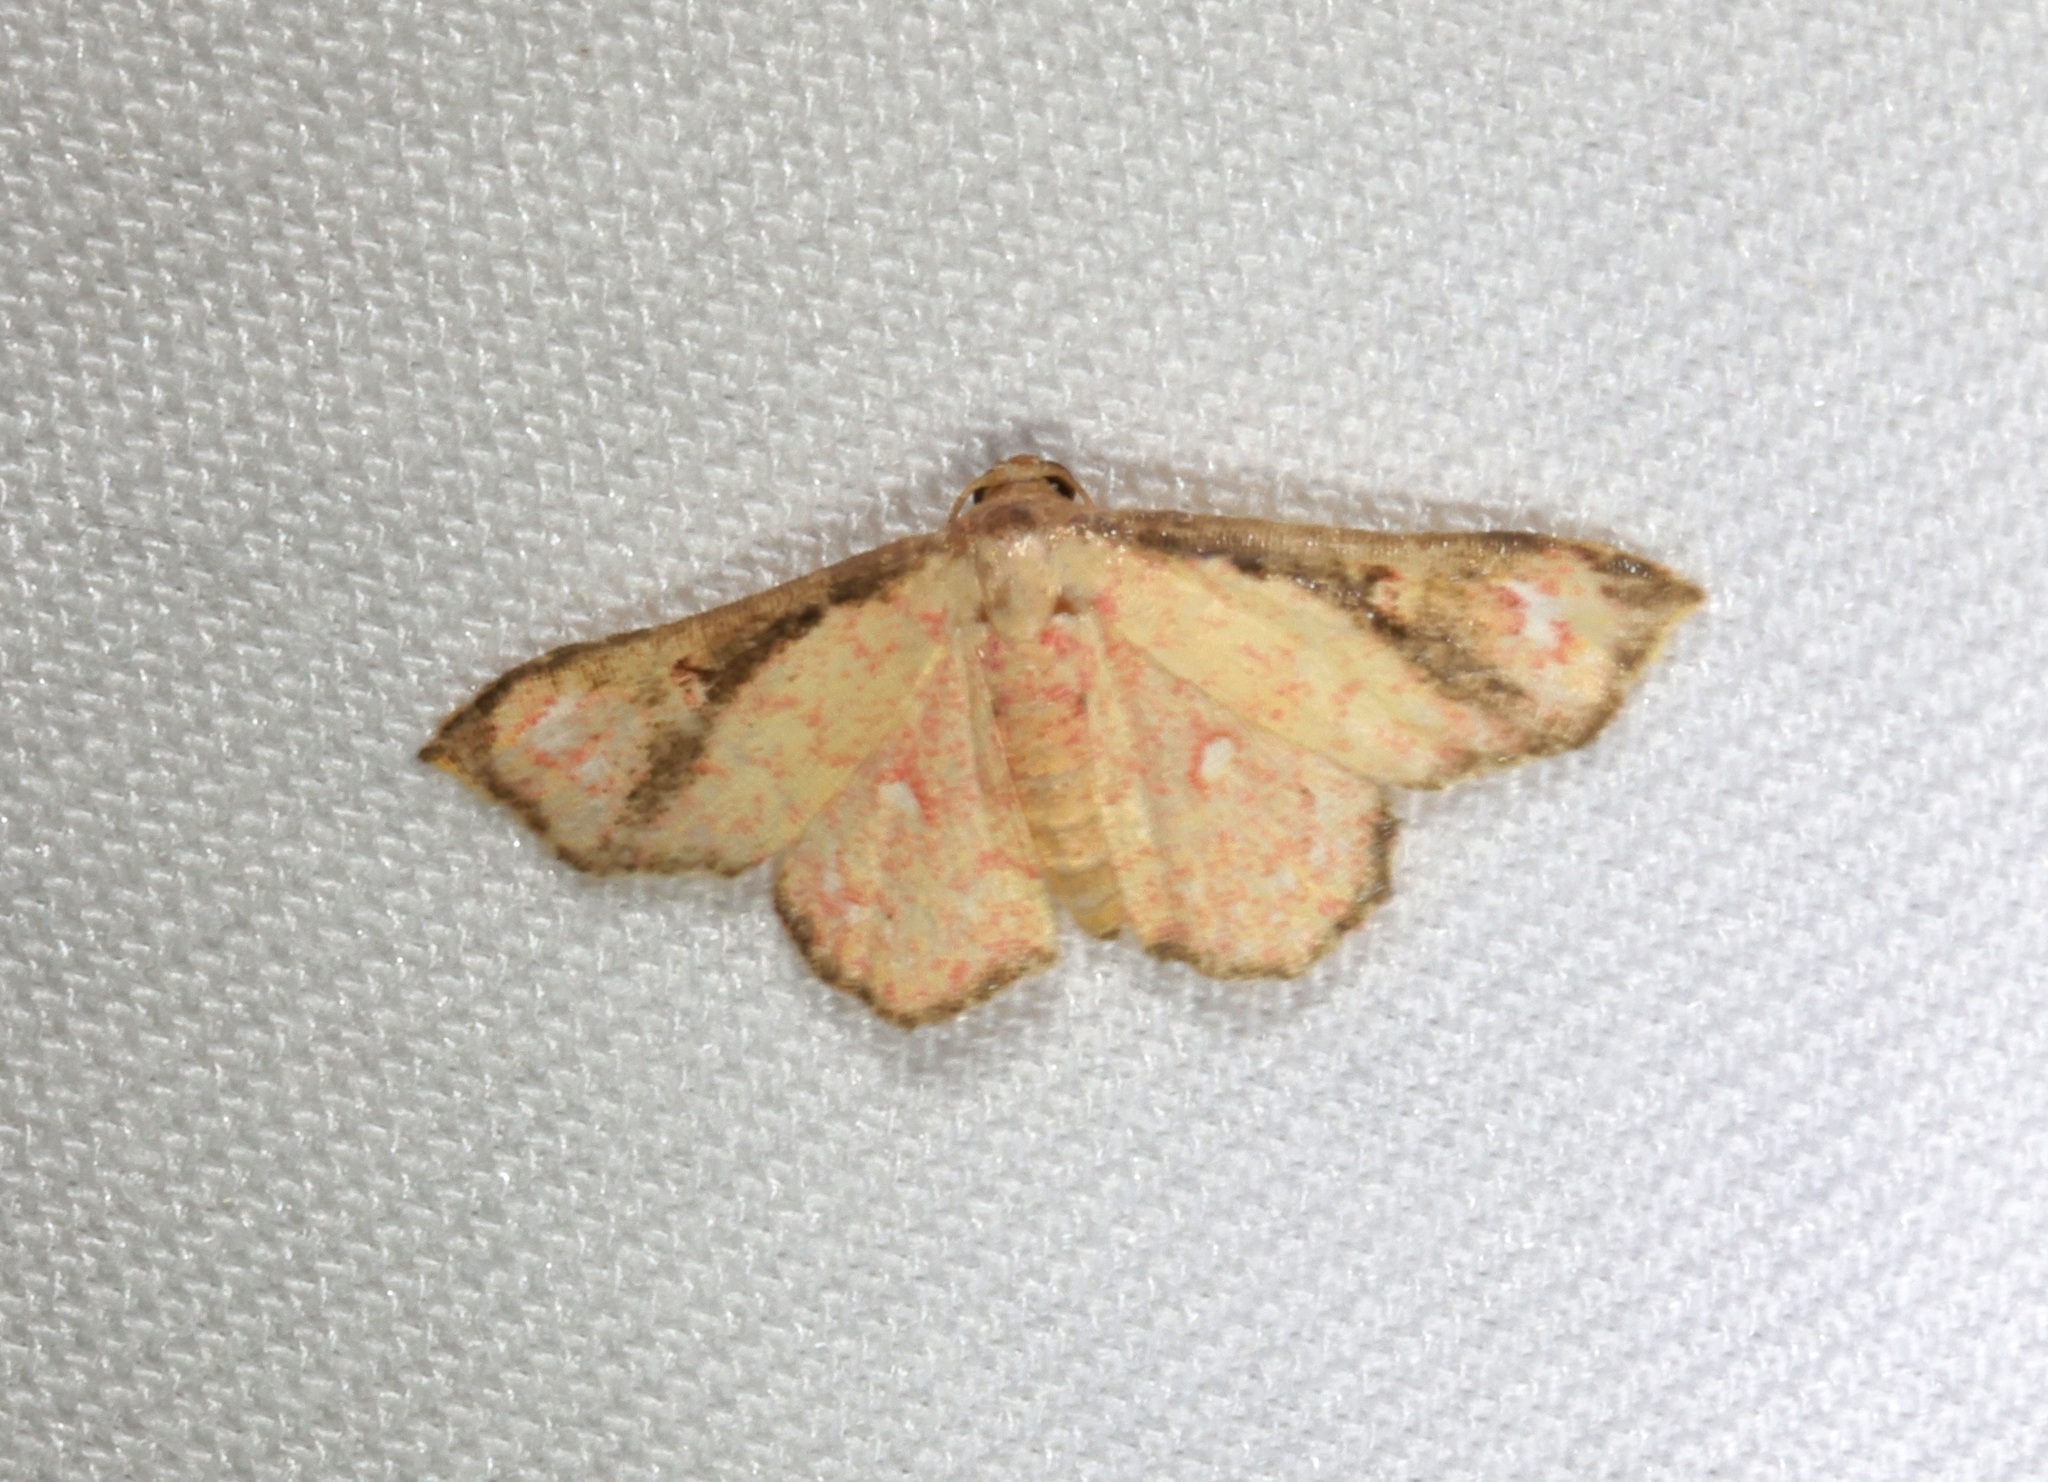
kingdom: Animalia
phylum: Arthropoda
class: Insecta
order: Lepidoptera
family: Noctuidae
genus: Enispa
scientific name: Enispa elataria
